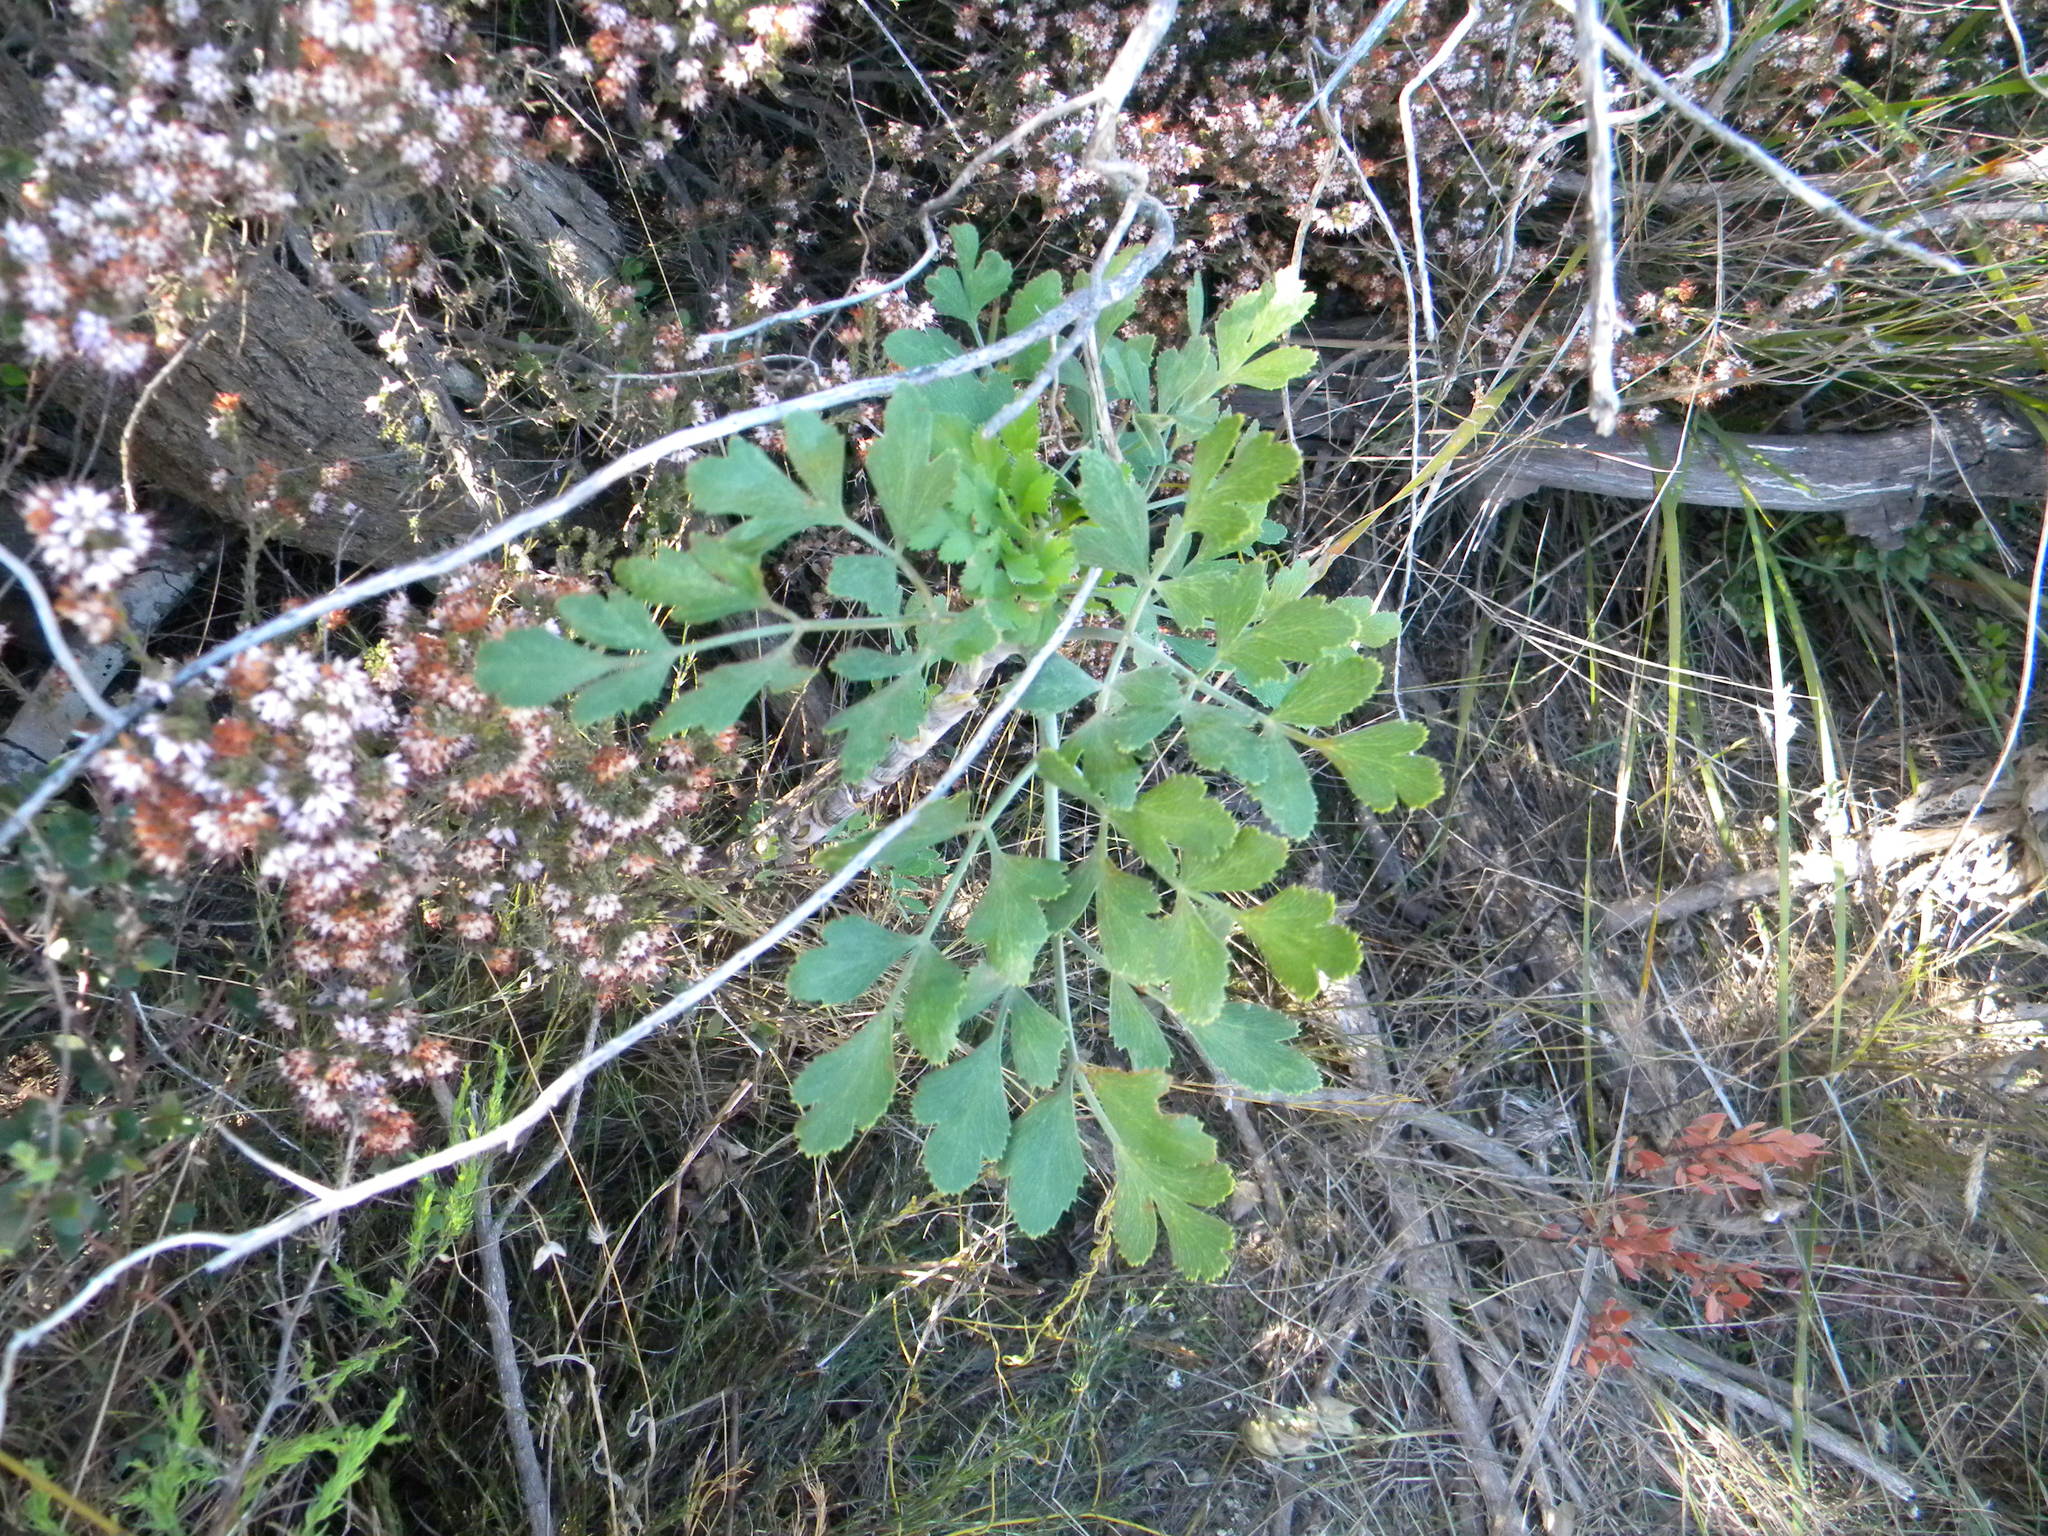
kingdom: Plantae
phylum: Tracheophyta
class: Magnoliopsida
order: Apiales
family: Apiaceae
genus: Notobubon
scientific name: Notobubon galbanum
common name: Blisterbush
